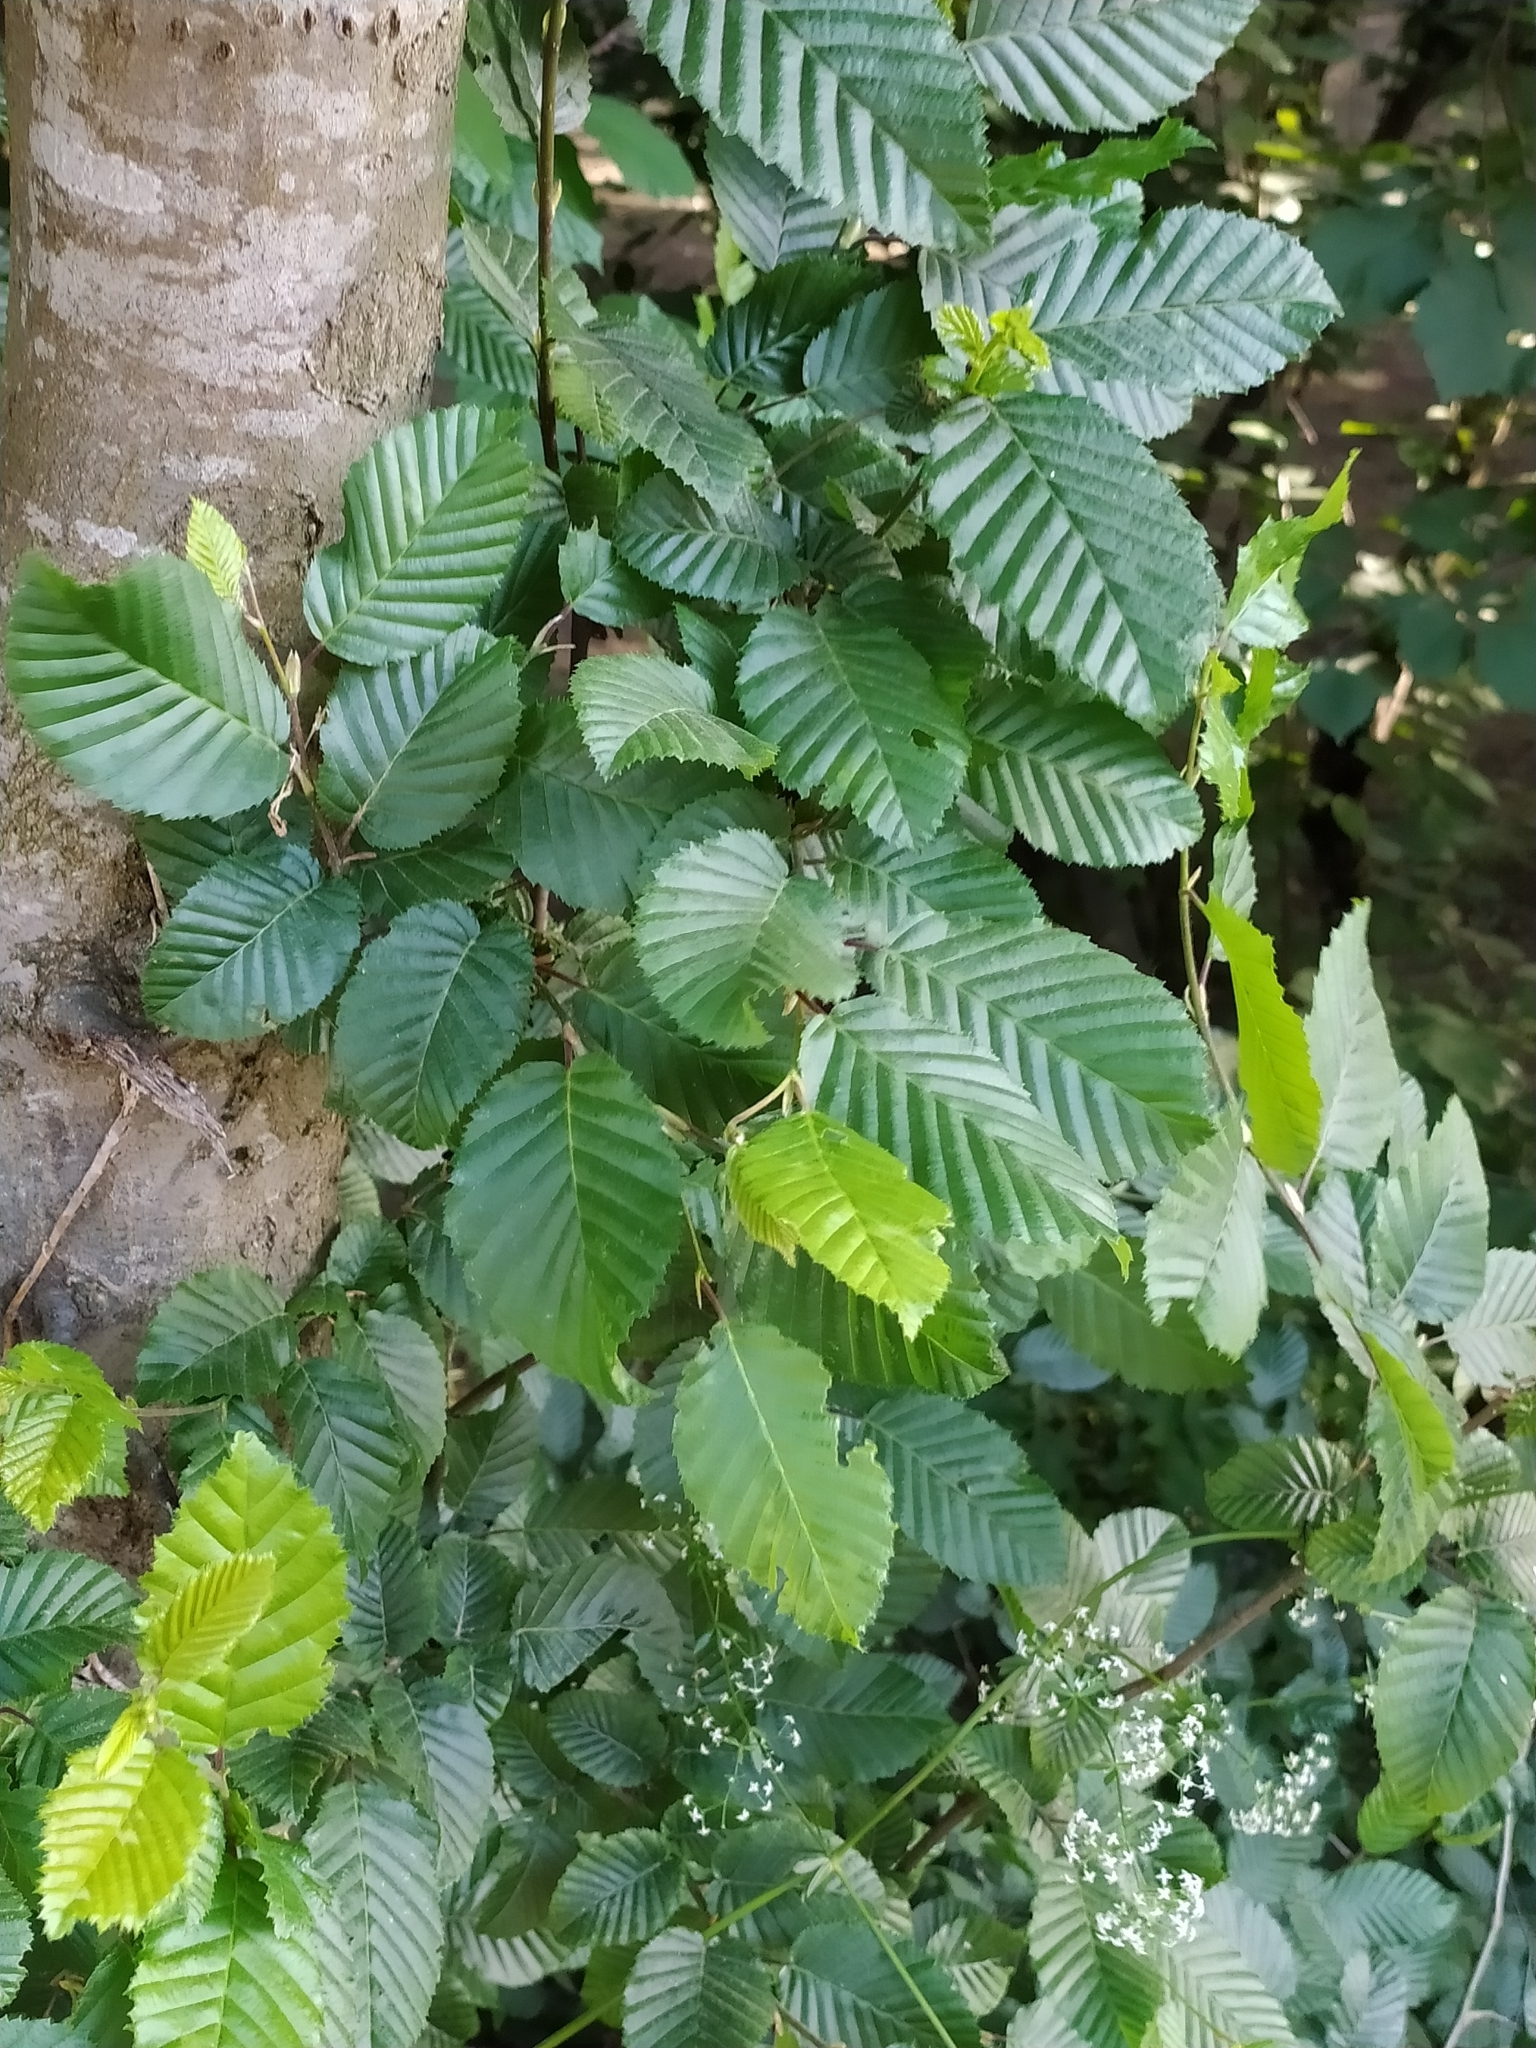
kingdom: Plantae
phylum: Tracheophyta
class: Magnoliopsida
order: Fagales
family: Betulaceae
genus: Carpinus
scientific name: Carpinus betulus
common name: Hornbeam
